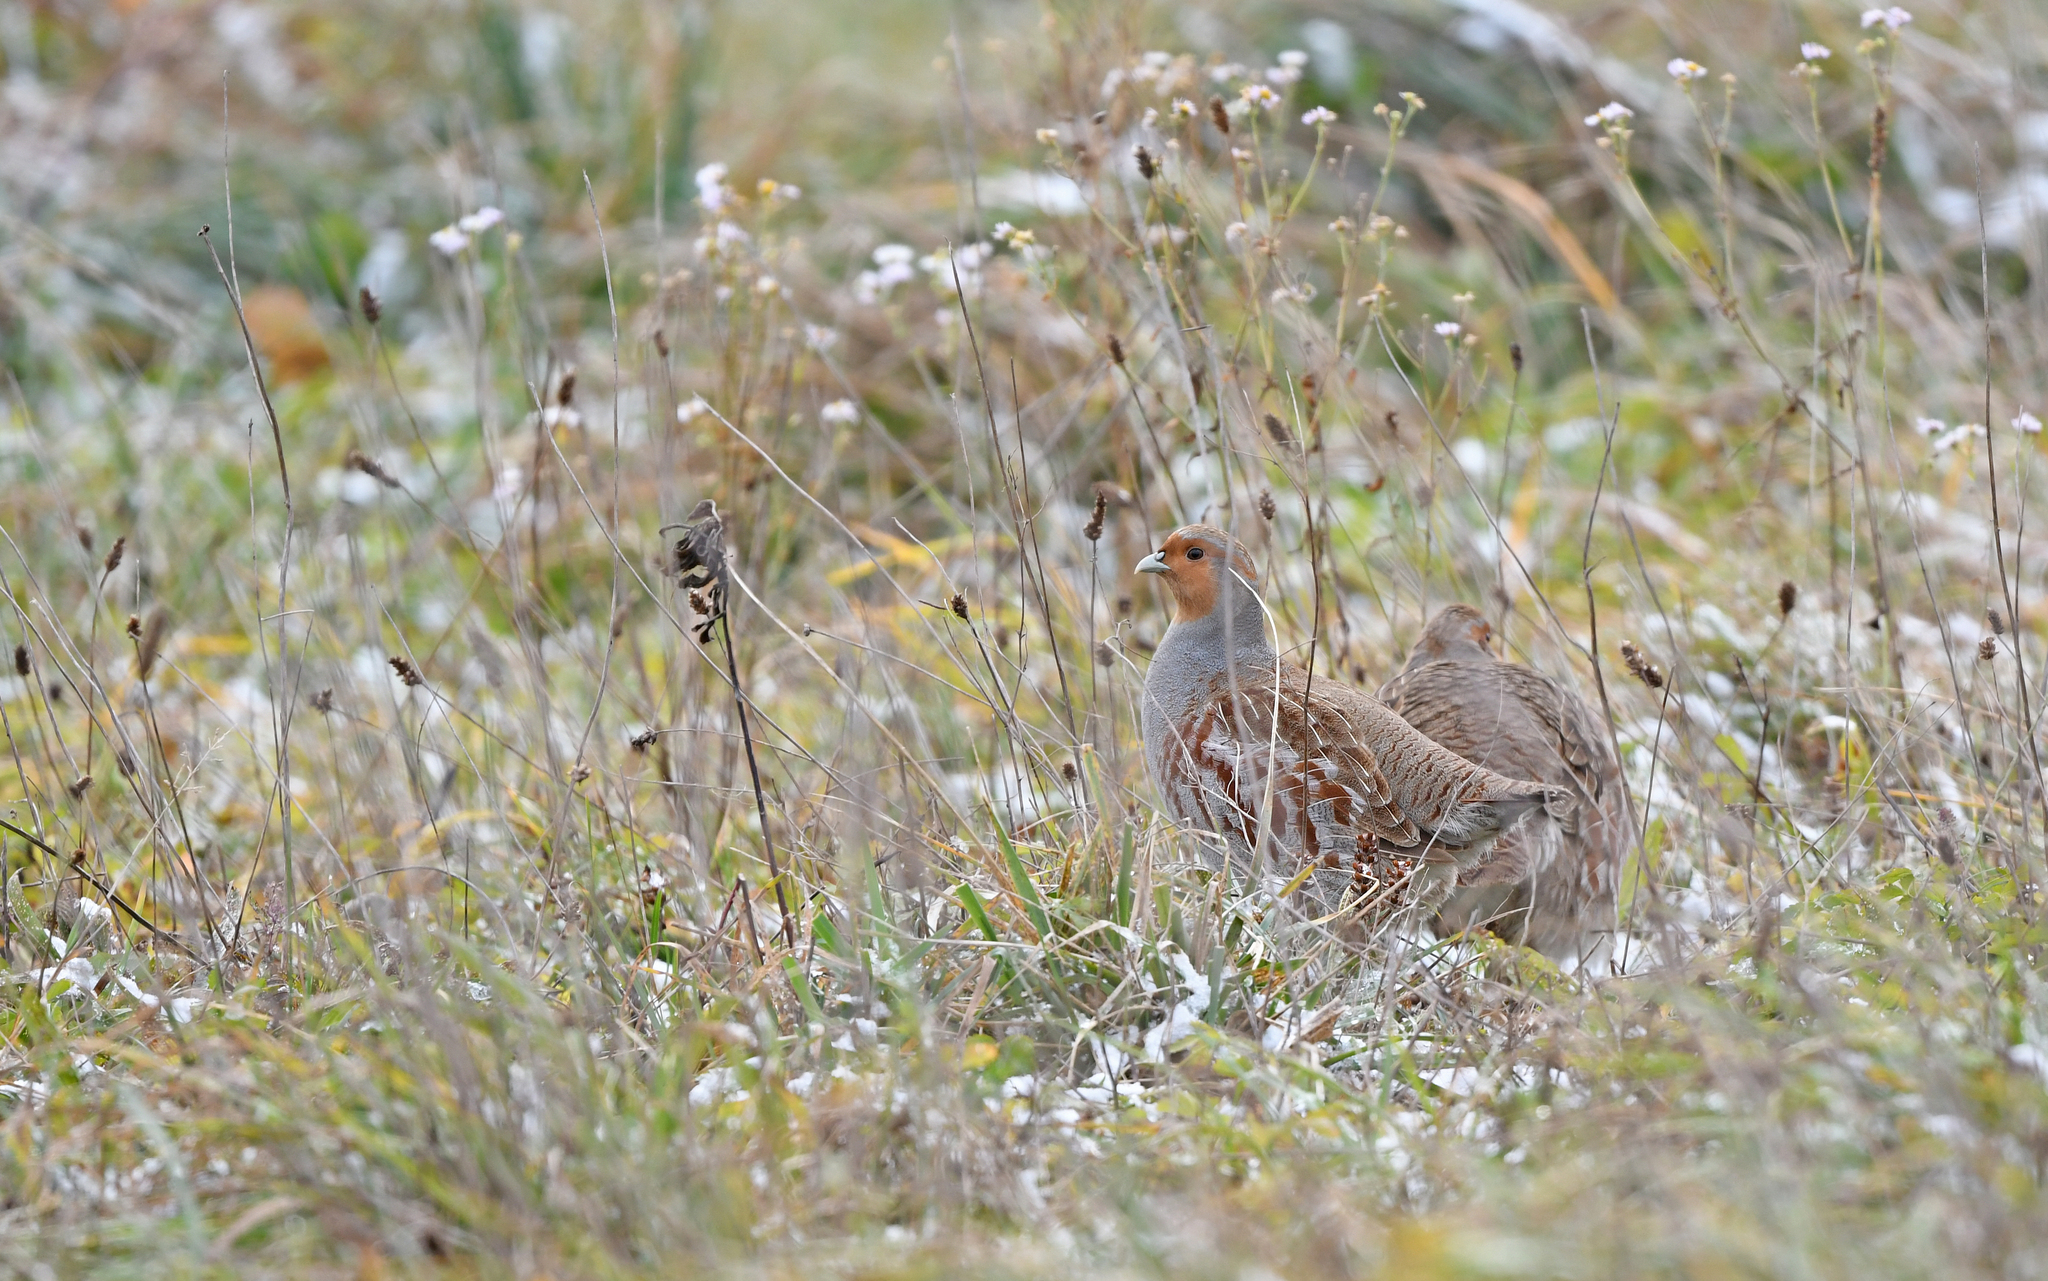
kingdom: Animalia
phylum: Chordata
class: Aves
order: Galliformes
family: Phasianidae
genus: Perdix
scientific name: Perdix perdix
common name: Grey partridge
